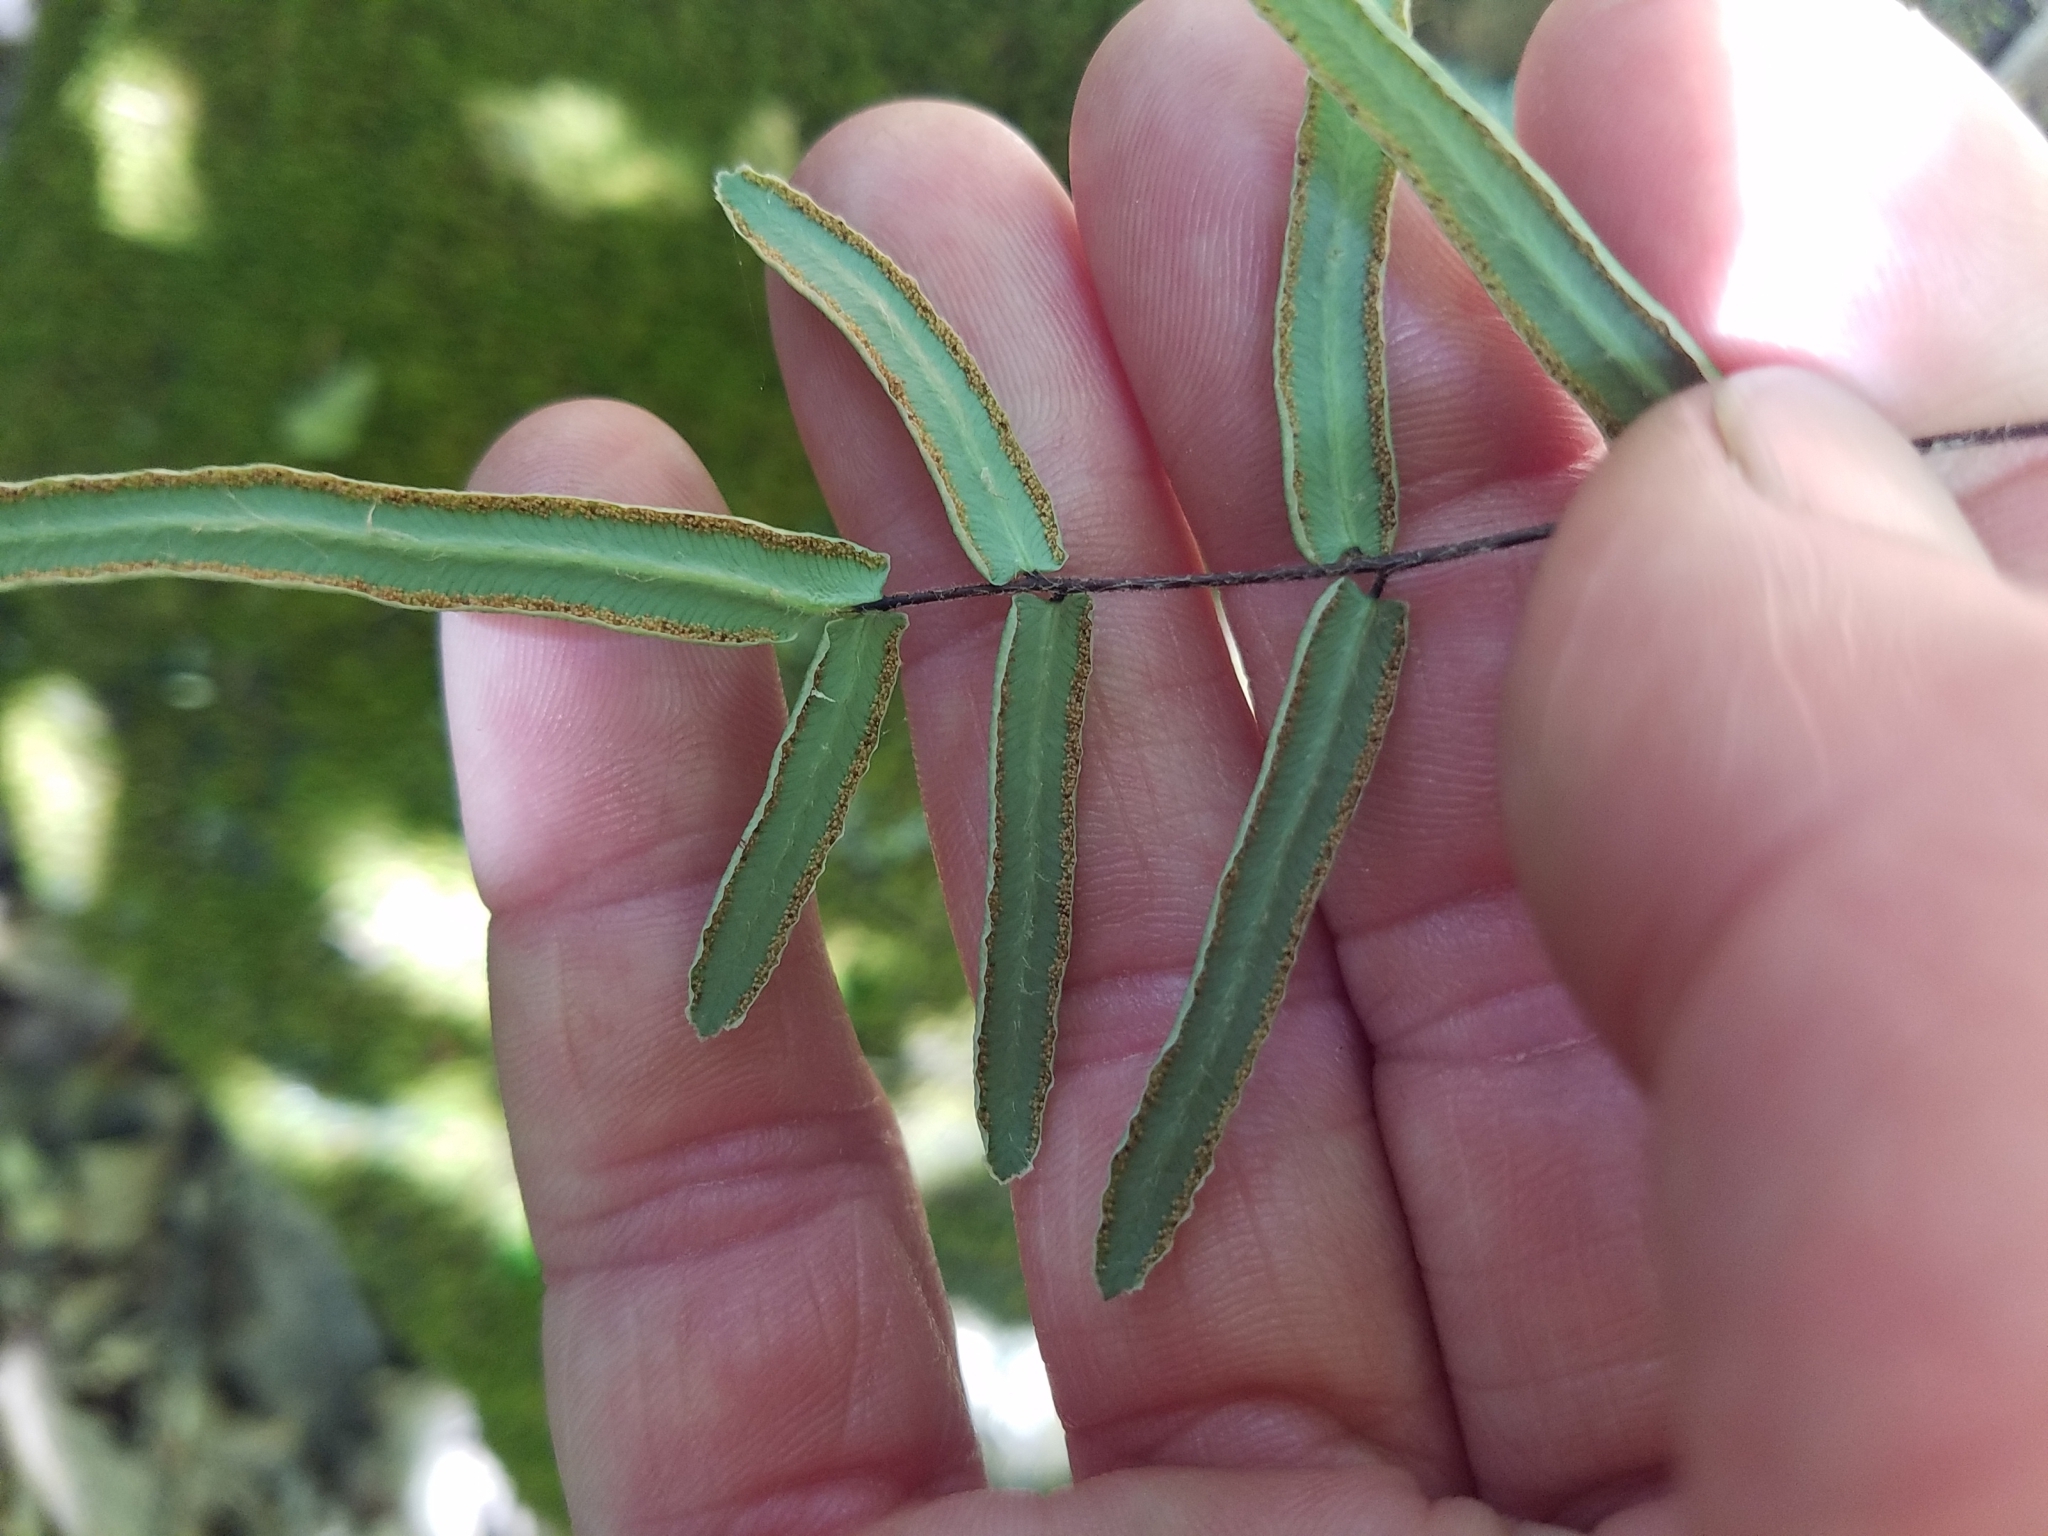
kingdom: Plantae
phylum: Tracheophyta
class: Polypodiopsida
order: Polypodiales
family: Pteridaceae
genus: Pellaea
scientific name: Pellaea atropurpurea
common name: Hairy cliffbrake
